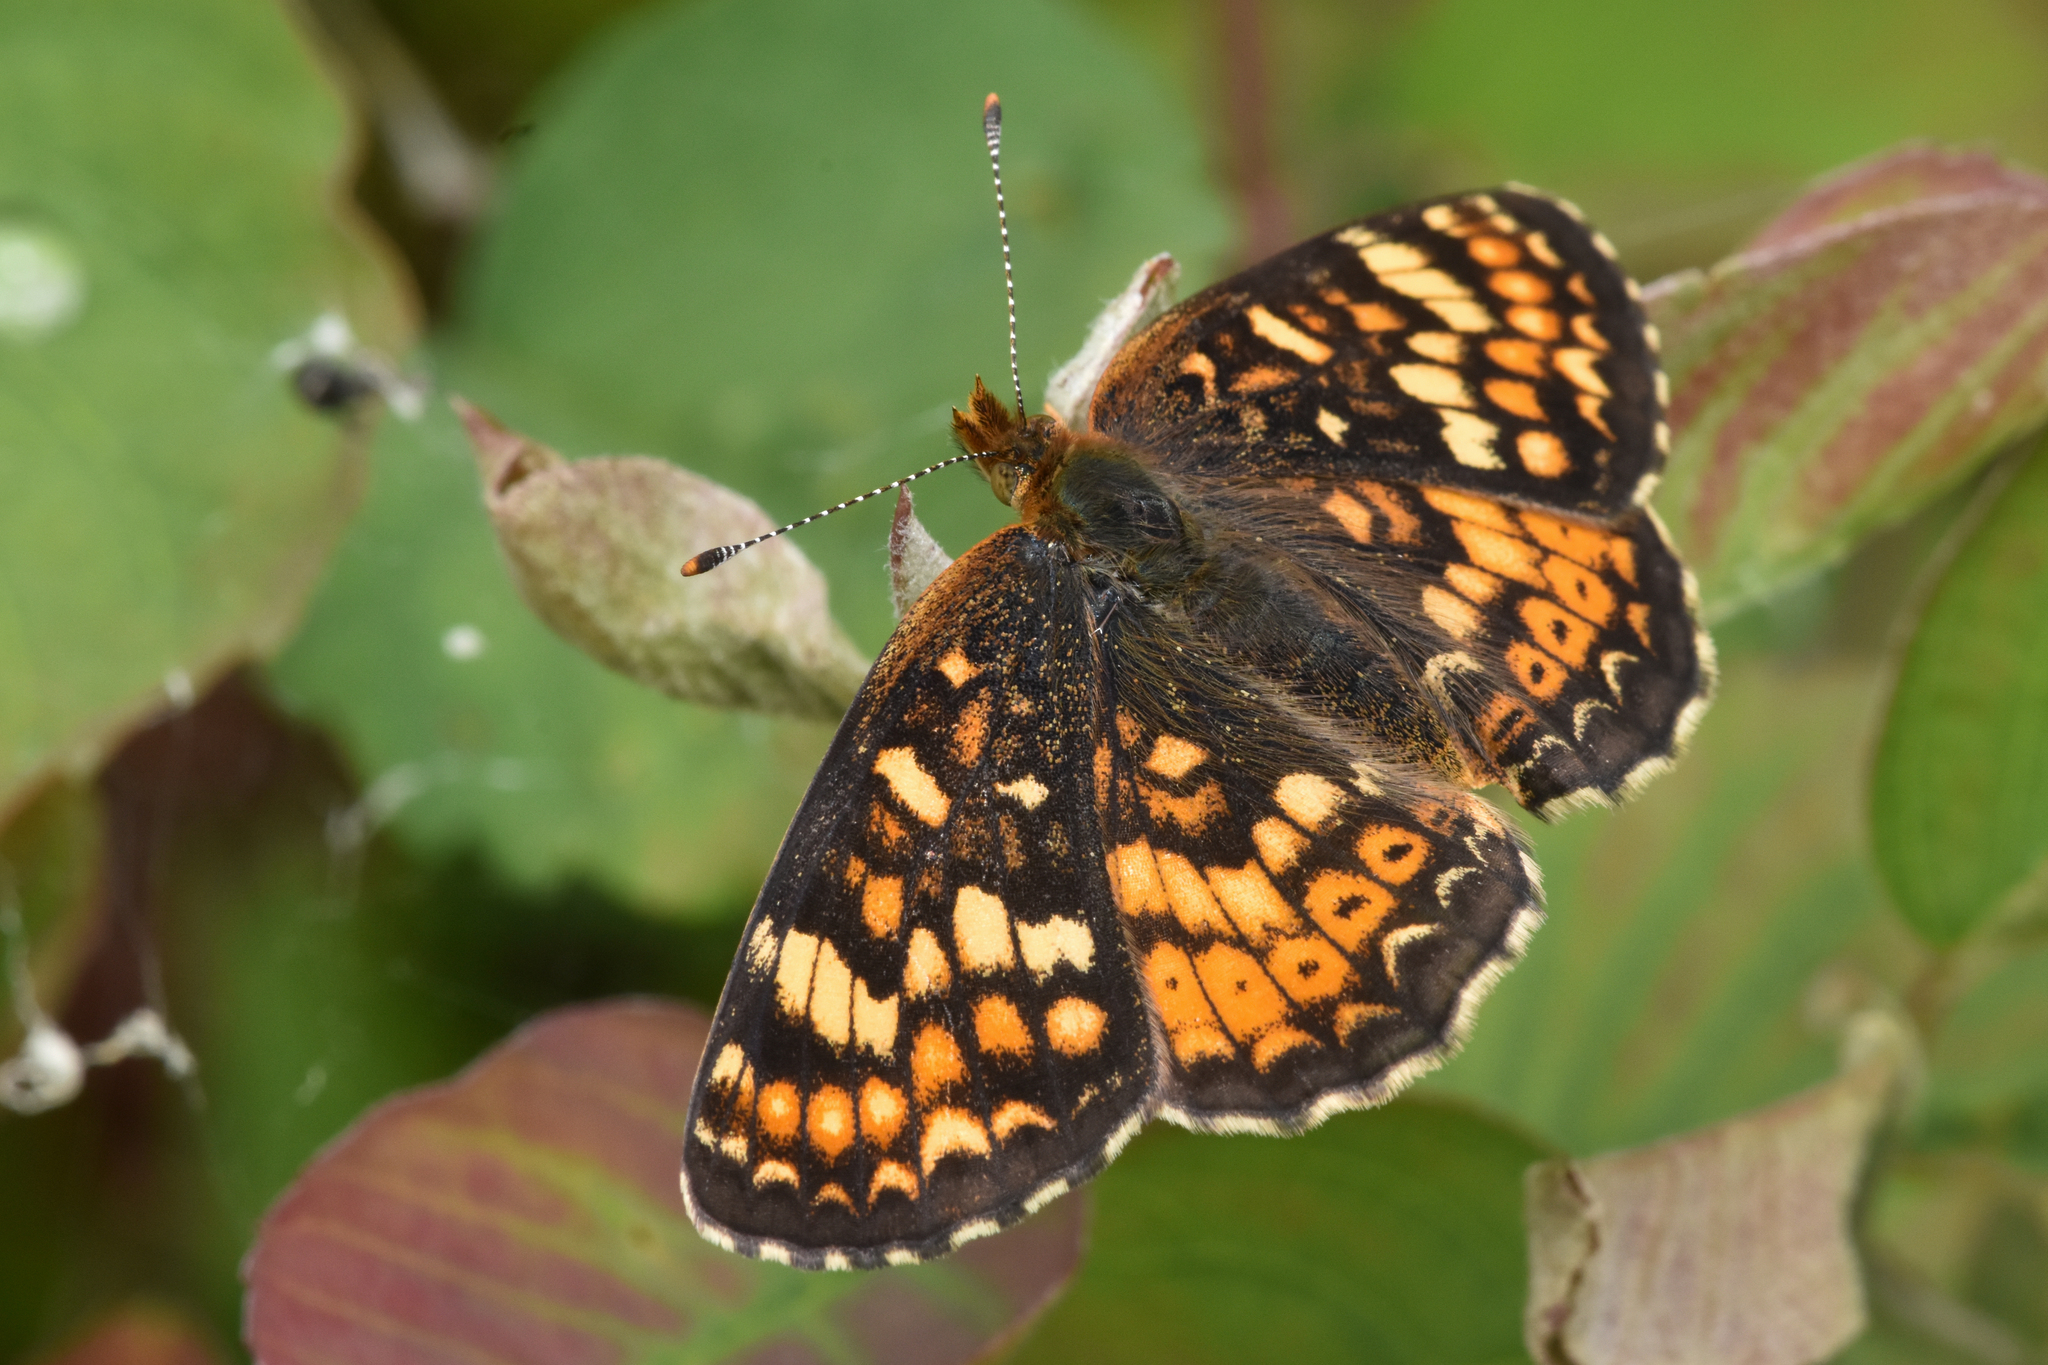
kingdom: Animalia
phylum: Arthropoda
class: Insecta
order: Lepidoptera
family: Nymphalidae
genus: Phyciodes
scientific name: Phyciodes tharos
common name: Pearl crescent
